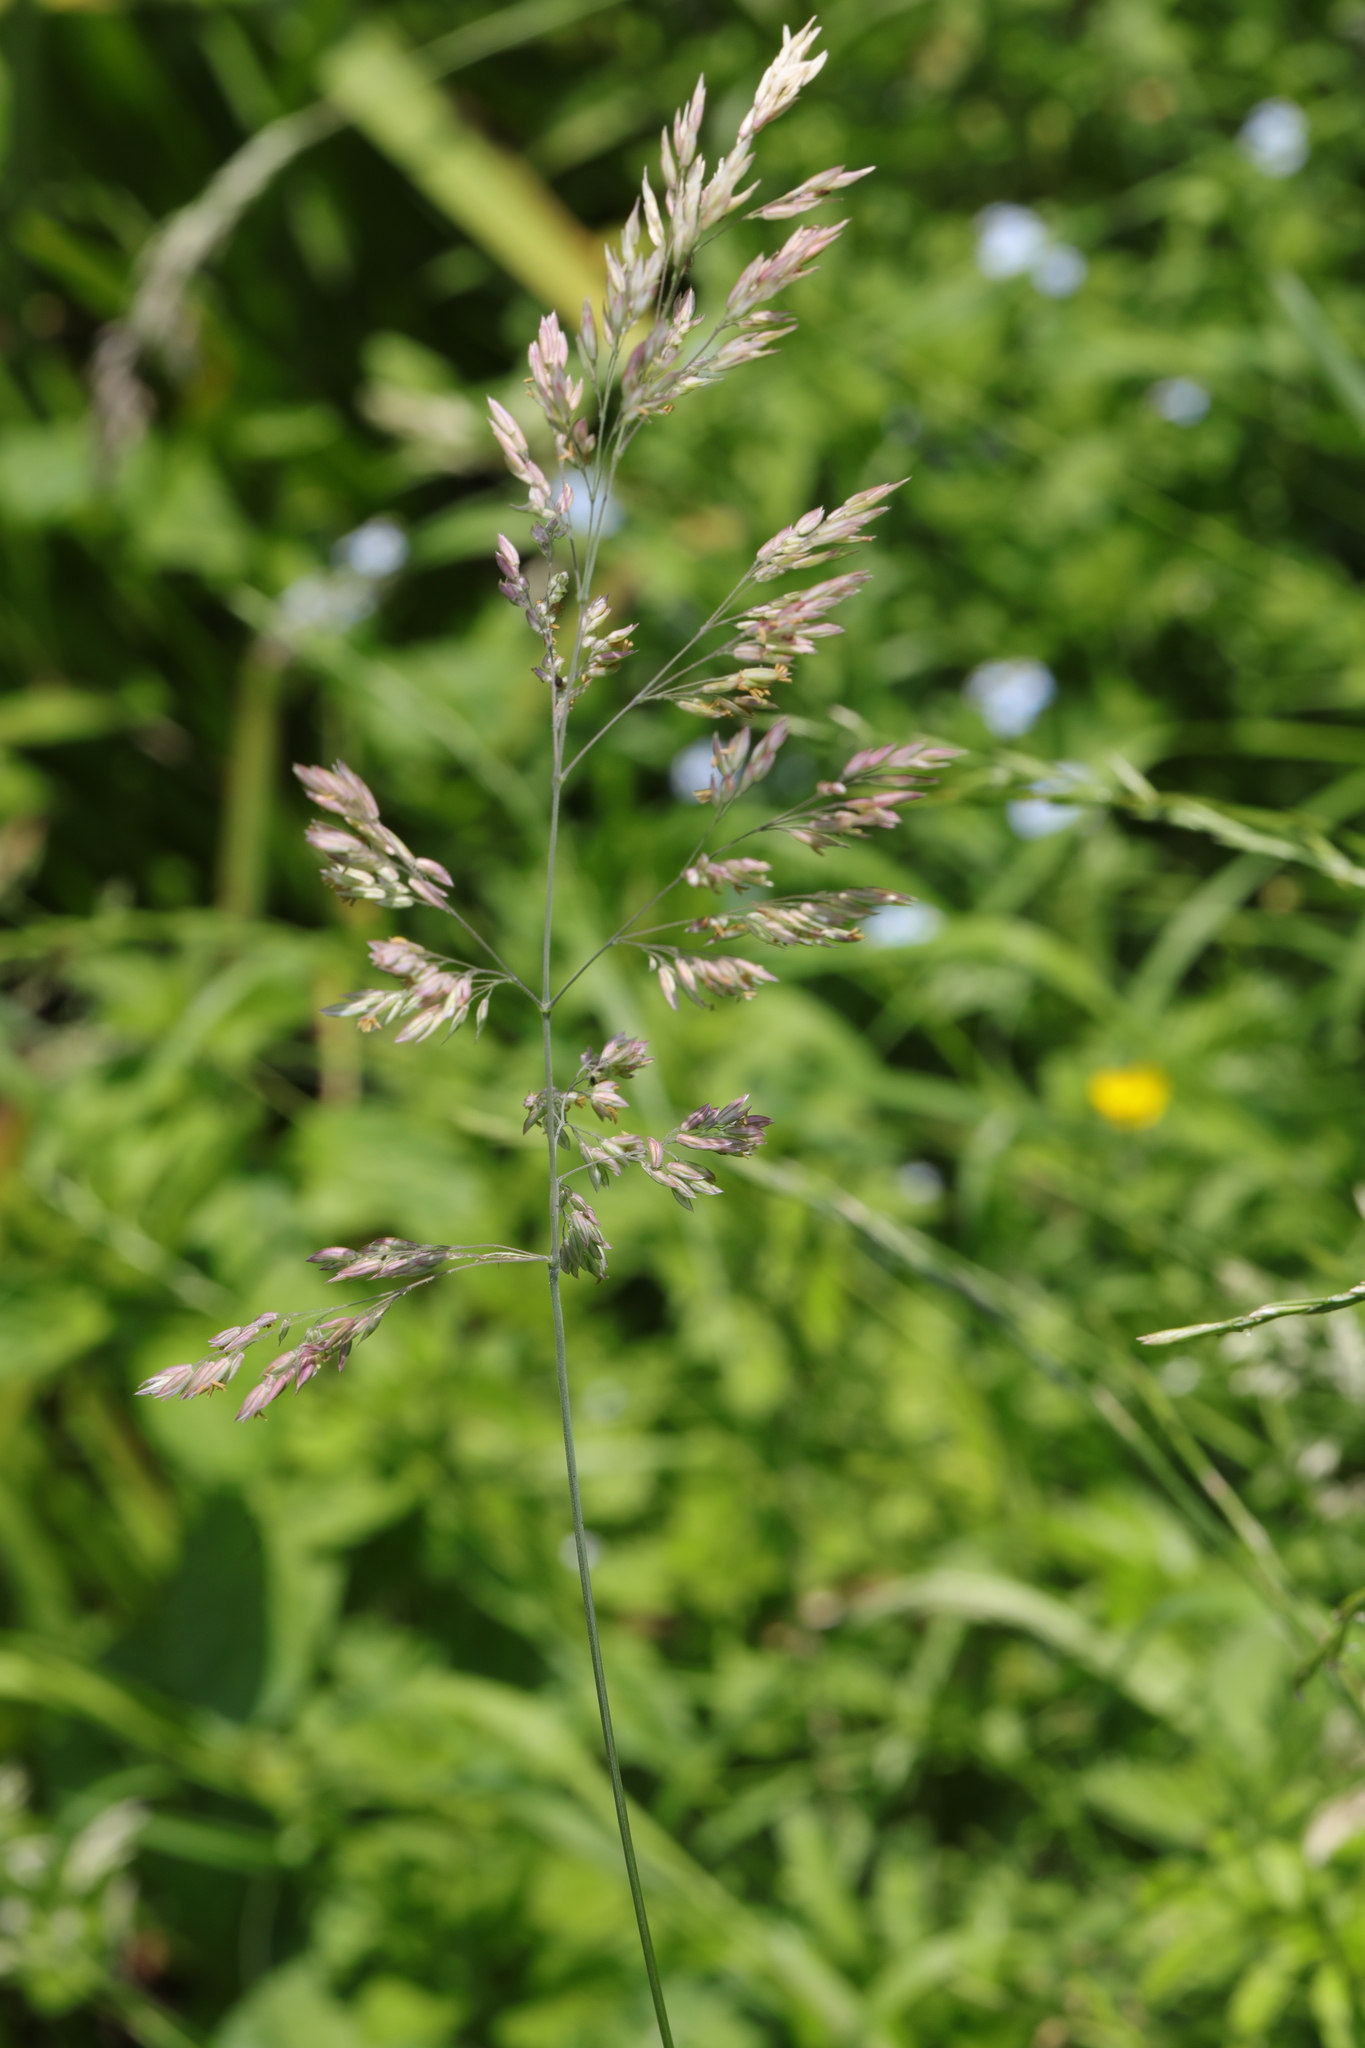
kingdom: Plantae
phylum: Tracheophyta
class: Liliopsida
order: Poales
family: Poaceae
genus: Holcus
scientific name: Holcus lanatus
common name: Yorkshire-fog
